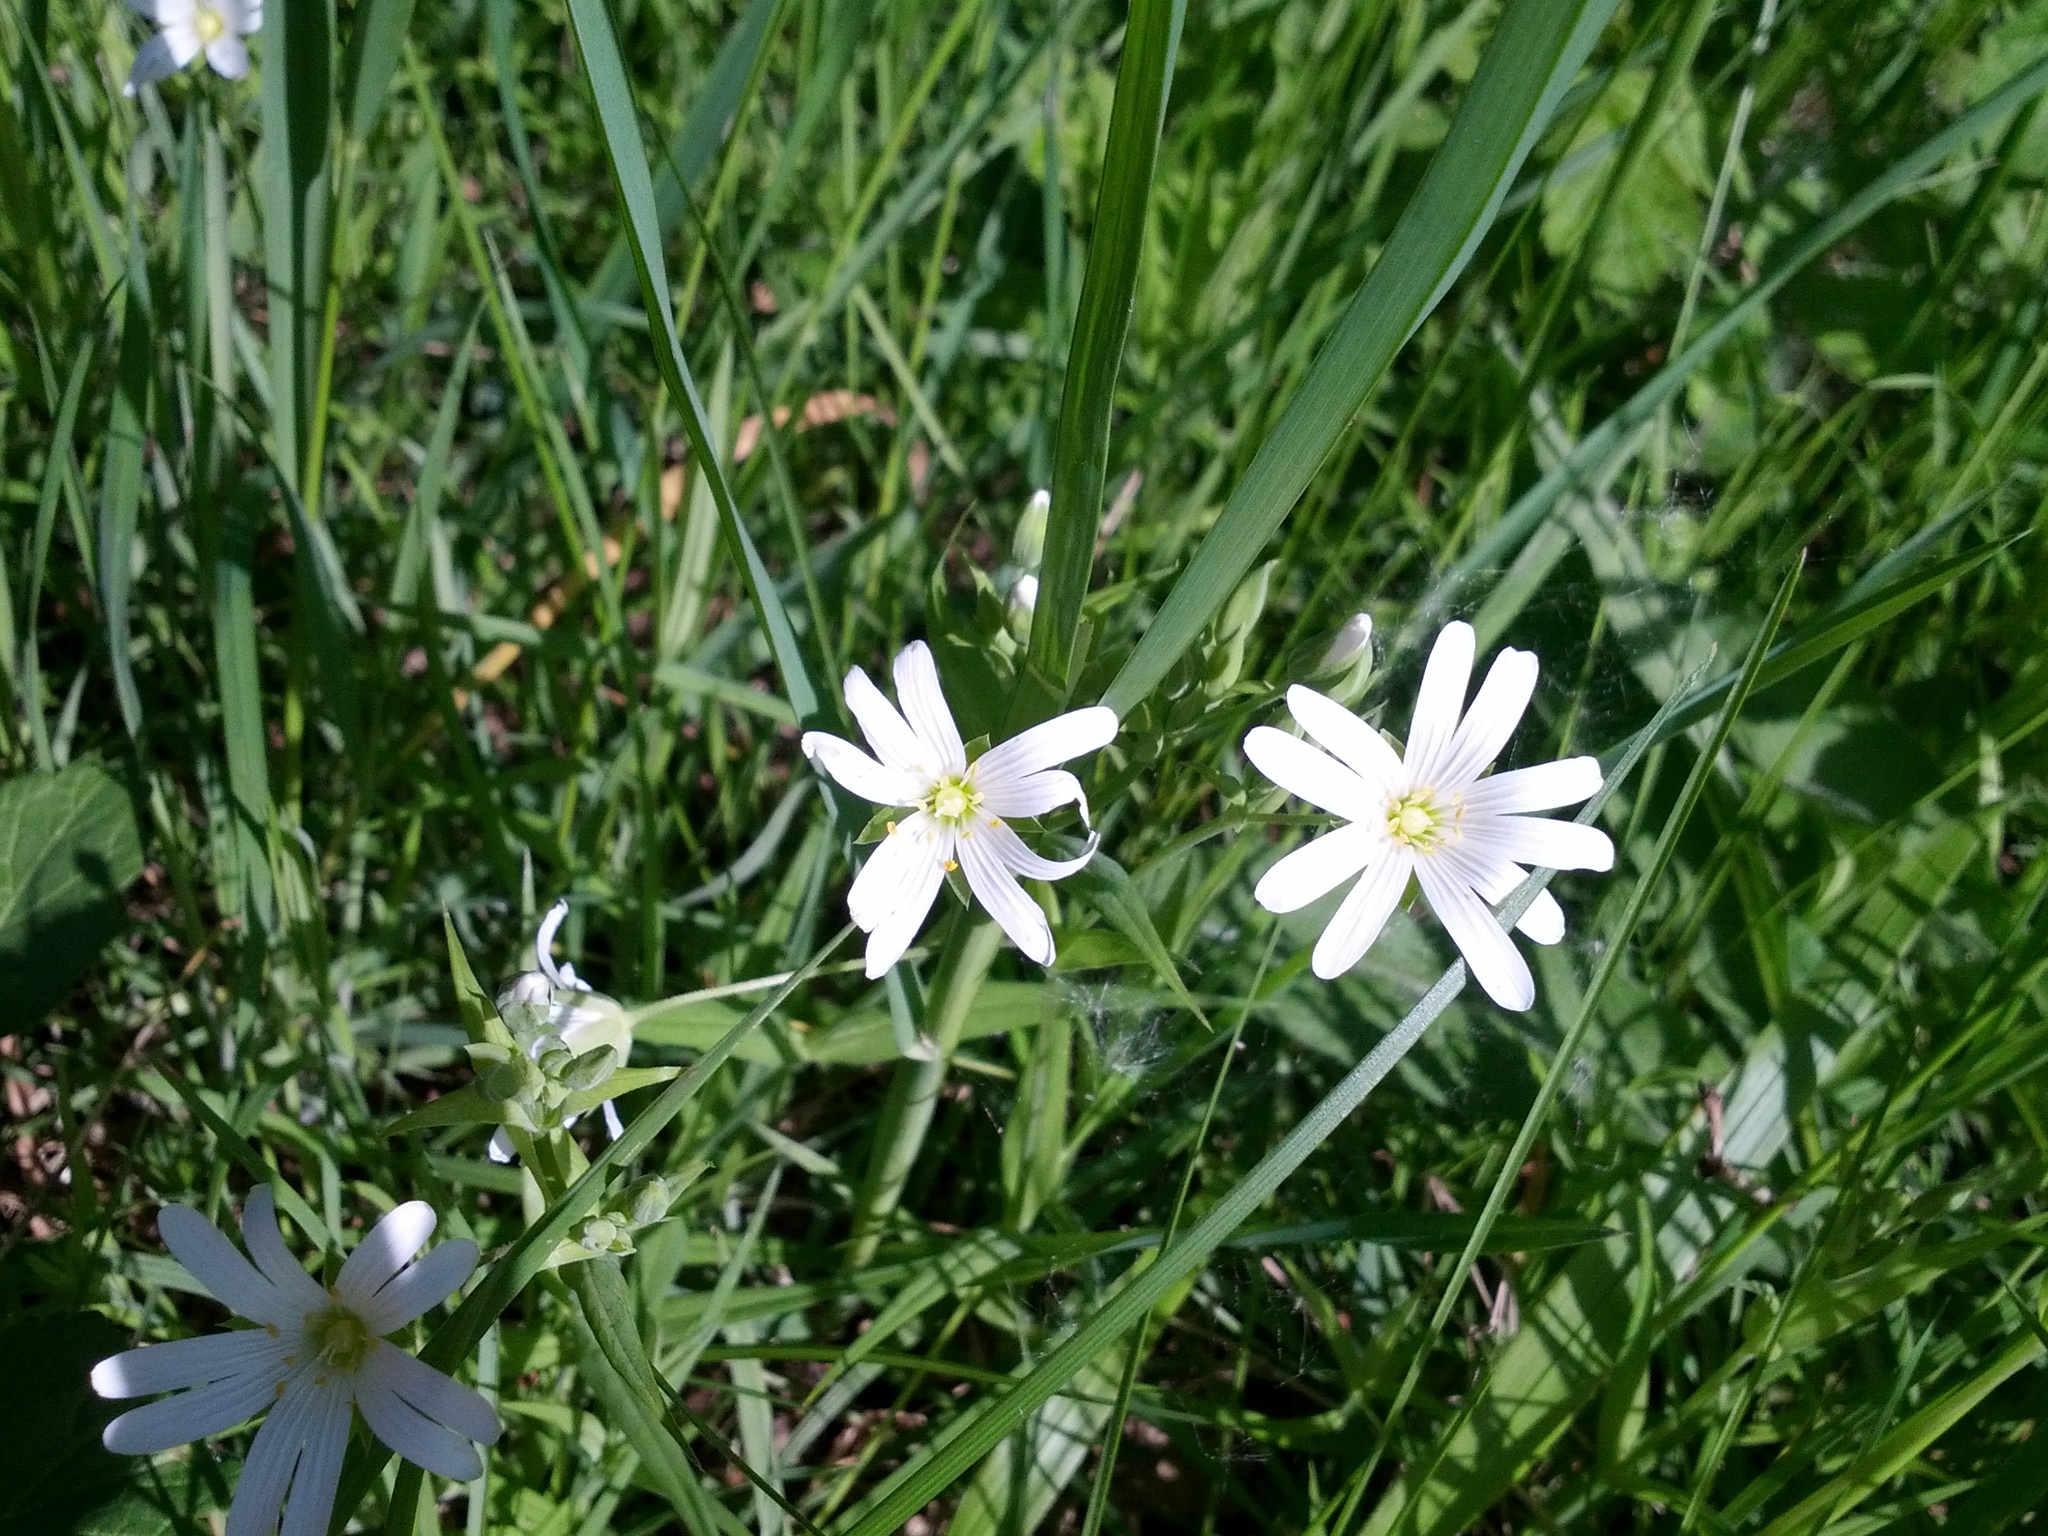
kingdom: Plantae
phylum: Tracheophyta
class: Magnoliopsida
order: Caryophyllales
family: Caryophyllaceae
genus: Rabelera
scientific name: Rabelera holostea
